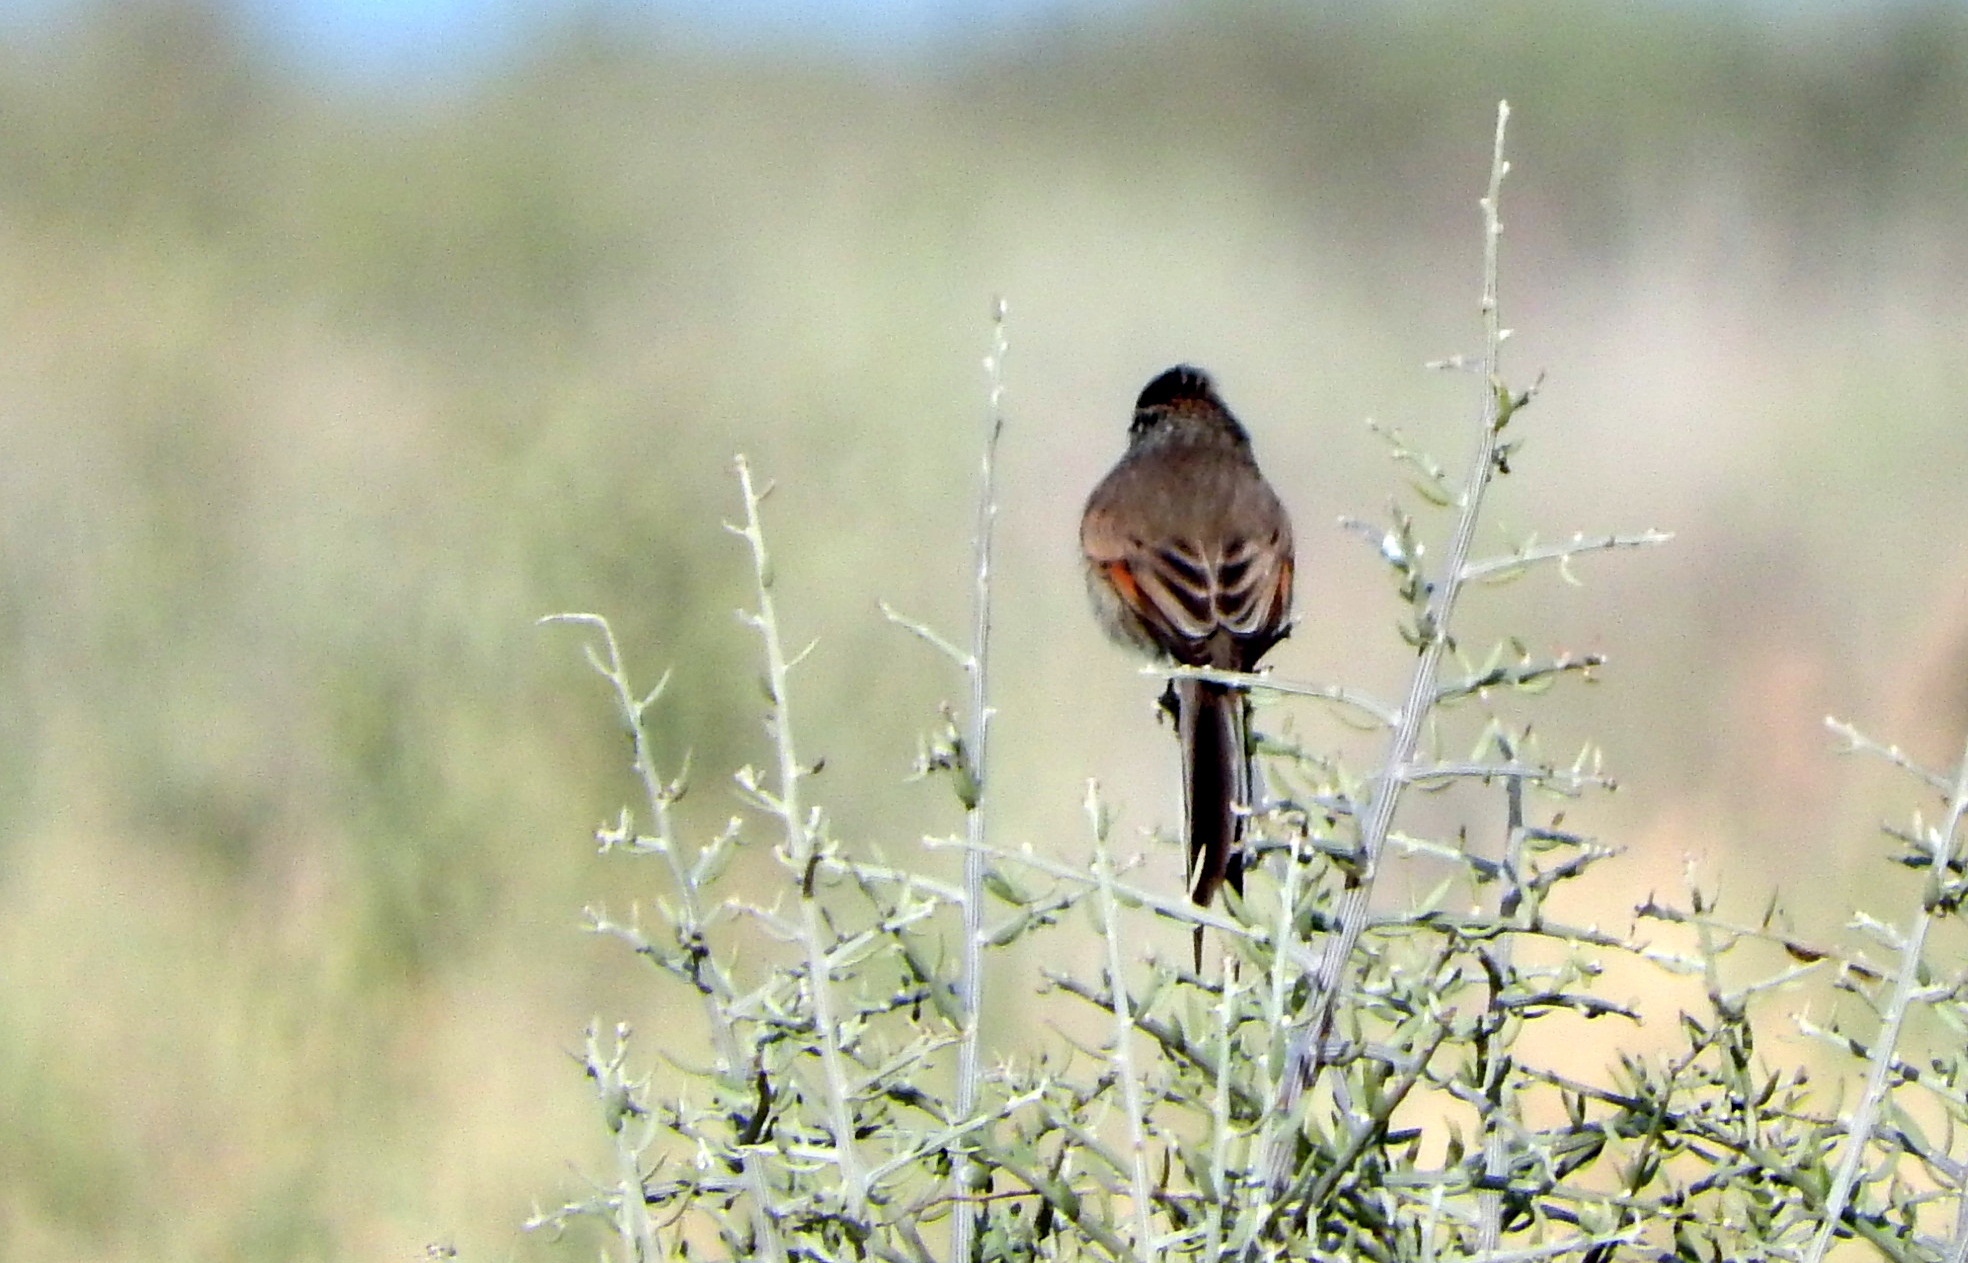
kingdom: Animalia
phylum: Chordata
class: Aves
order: Passeriformes
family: Furnariidae
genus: Leptasthenura
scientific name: Leptasthenura aegithaloides
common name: Plain-mantled tit-spinetail
